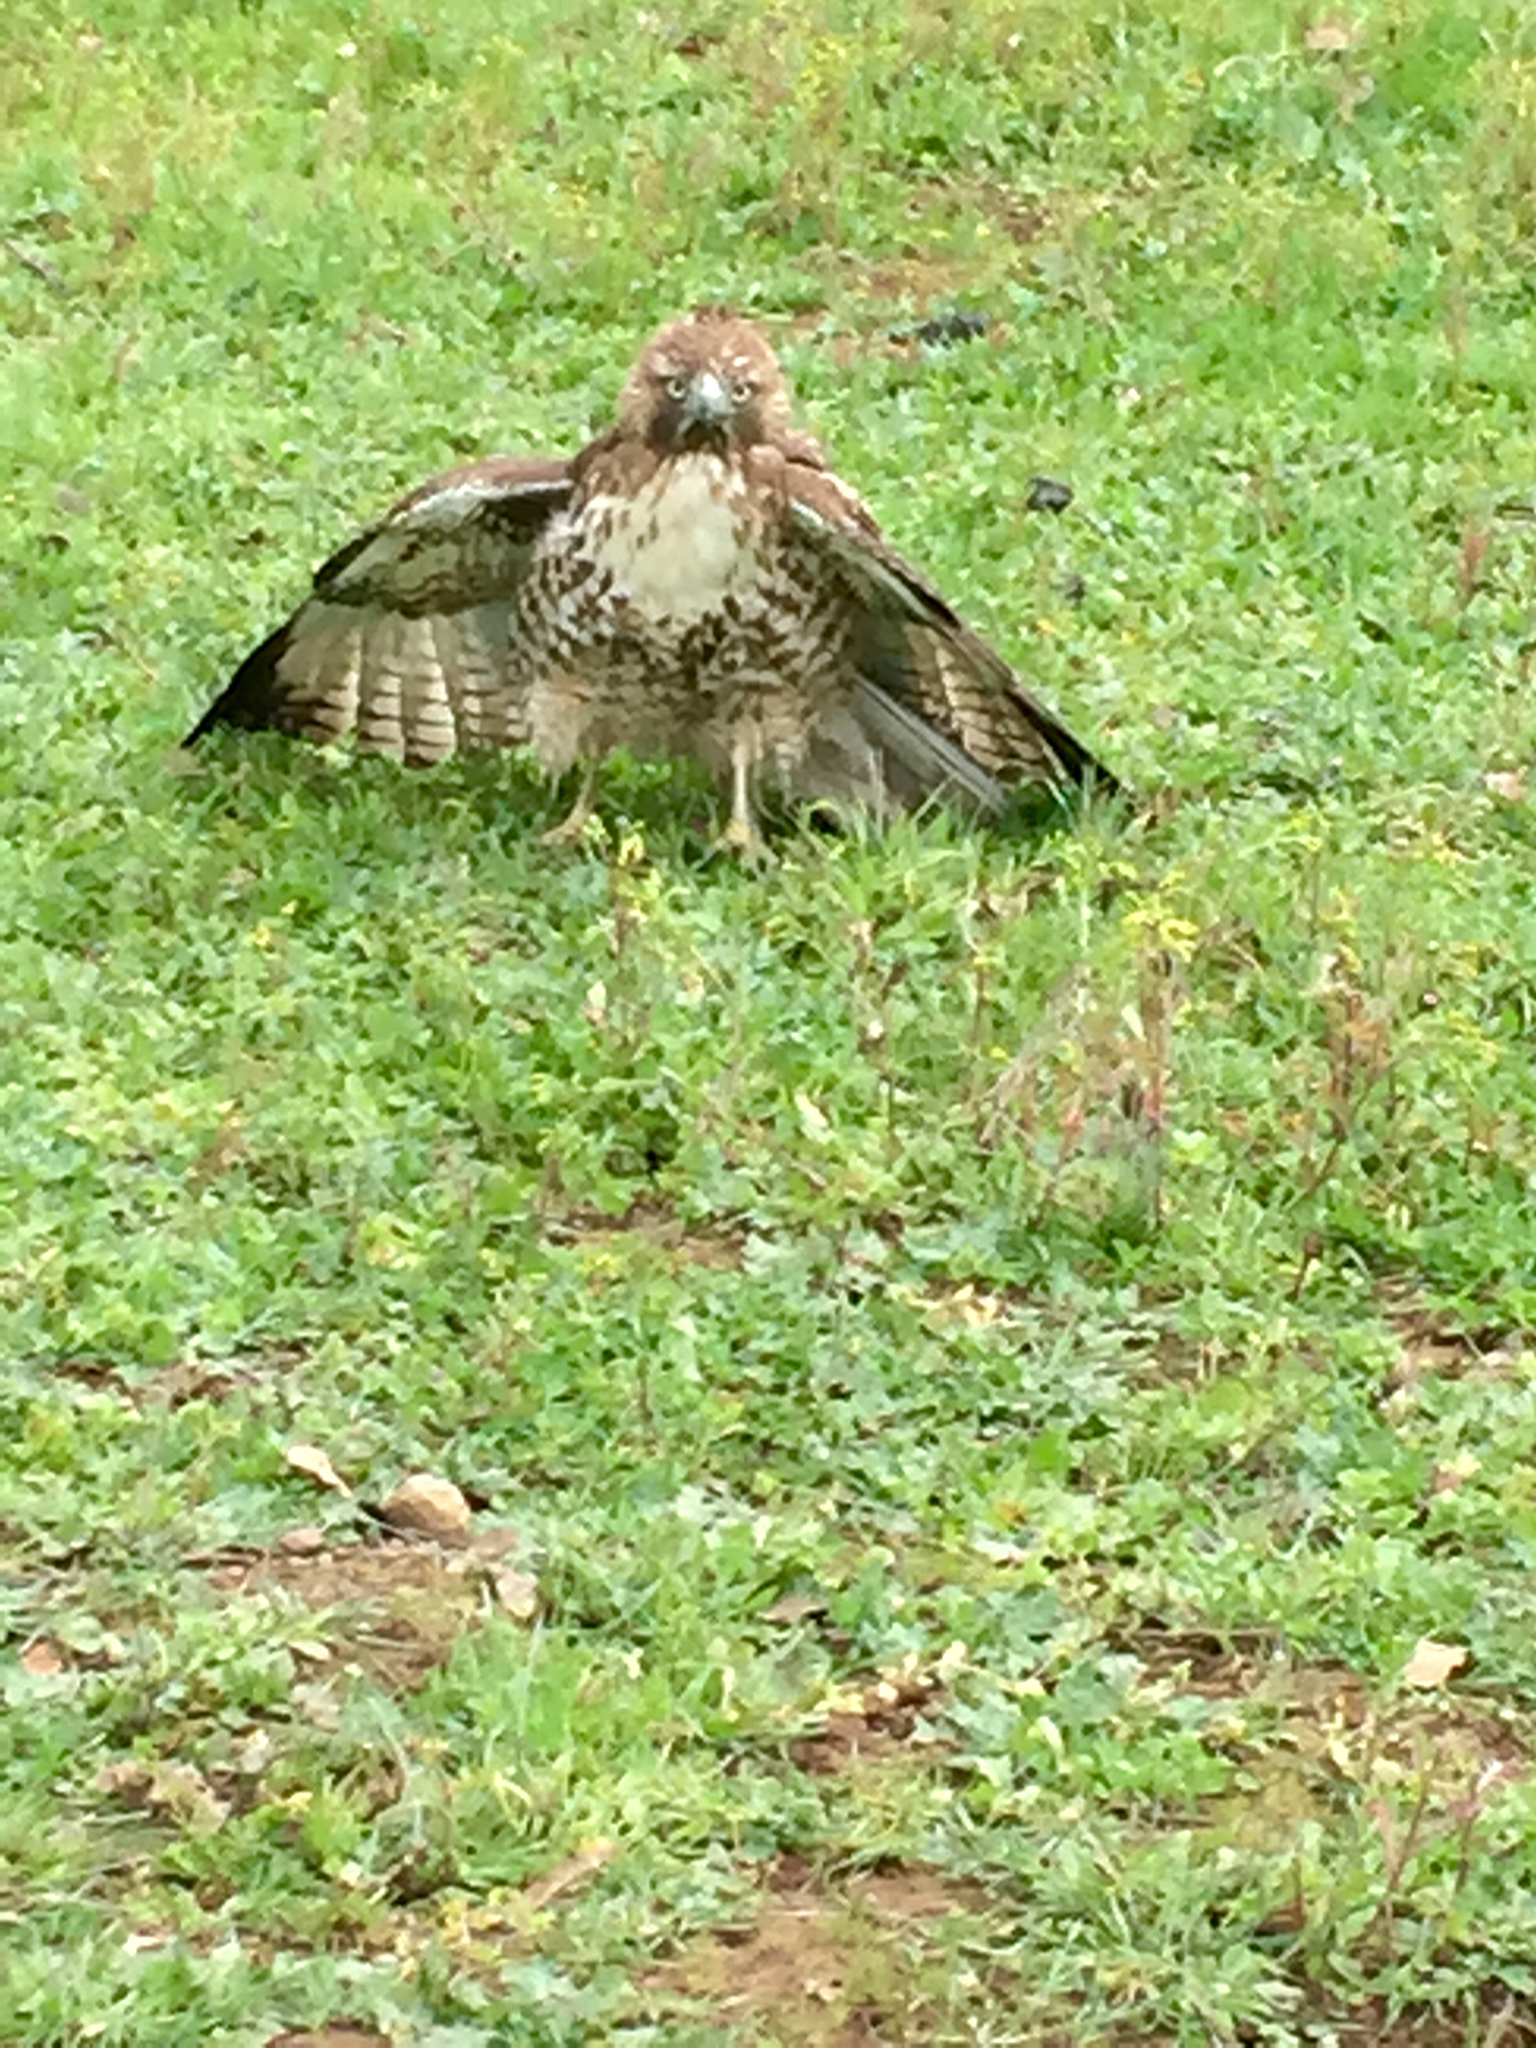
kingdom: Animalia
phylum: Chordata
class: Aves
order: Accipitriformes
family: Accipitridae
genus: Buteo
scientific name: Buteo jamaicensis
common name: Red-tailed hawk
